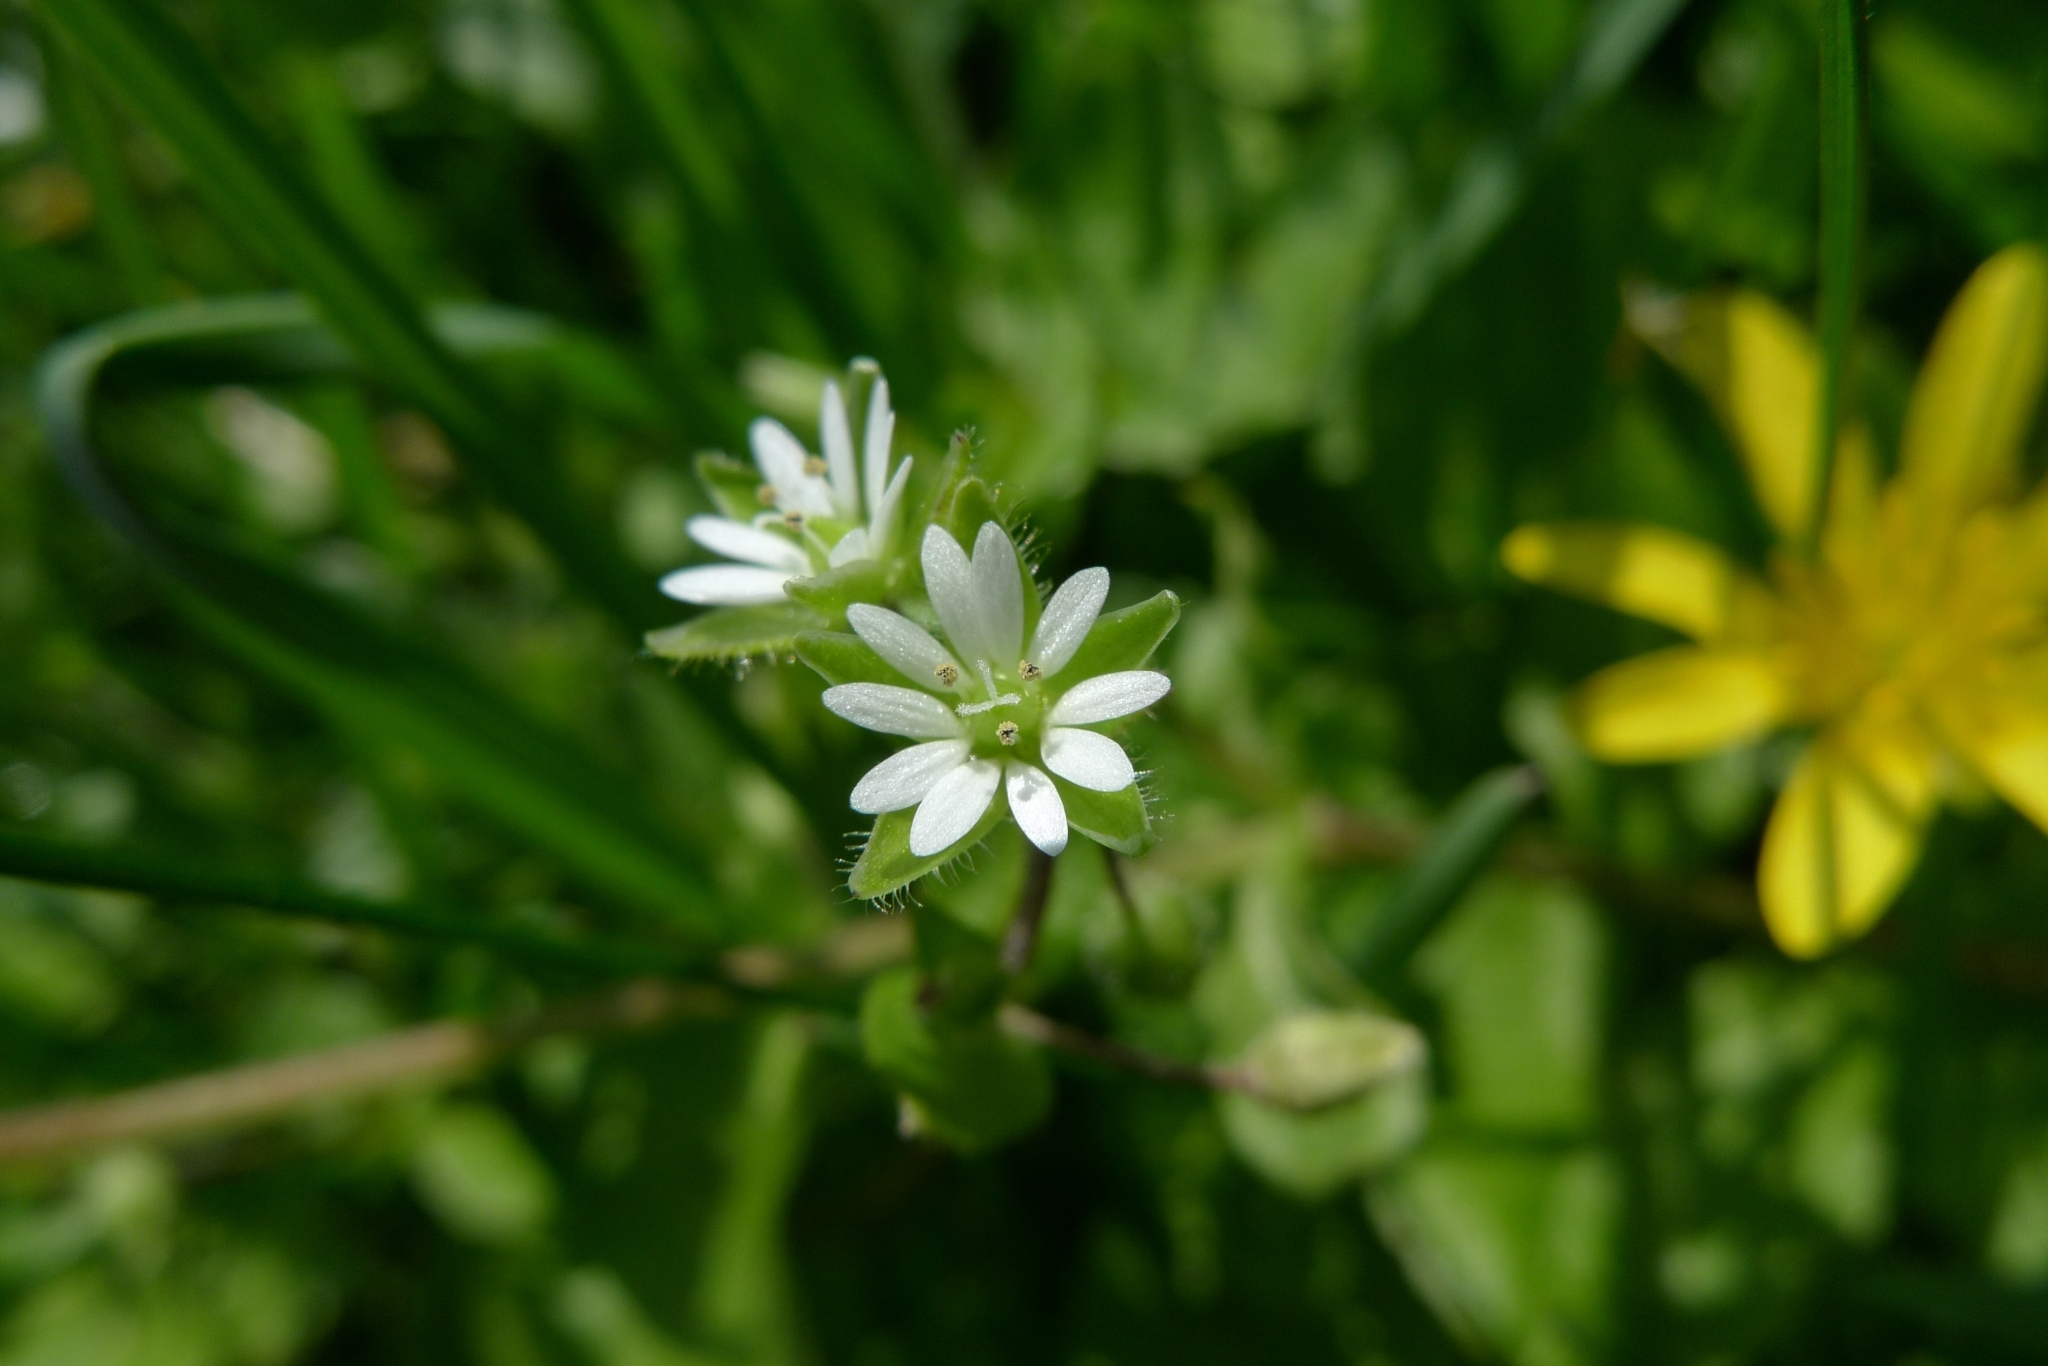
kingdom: Plantae
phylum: Tracheophyta
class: Magnoliopsida
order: Caryophyllales
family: Caryophyllaceae
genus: Stellaria
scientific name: Stellaria media
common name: Common chickweed
